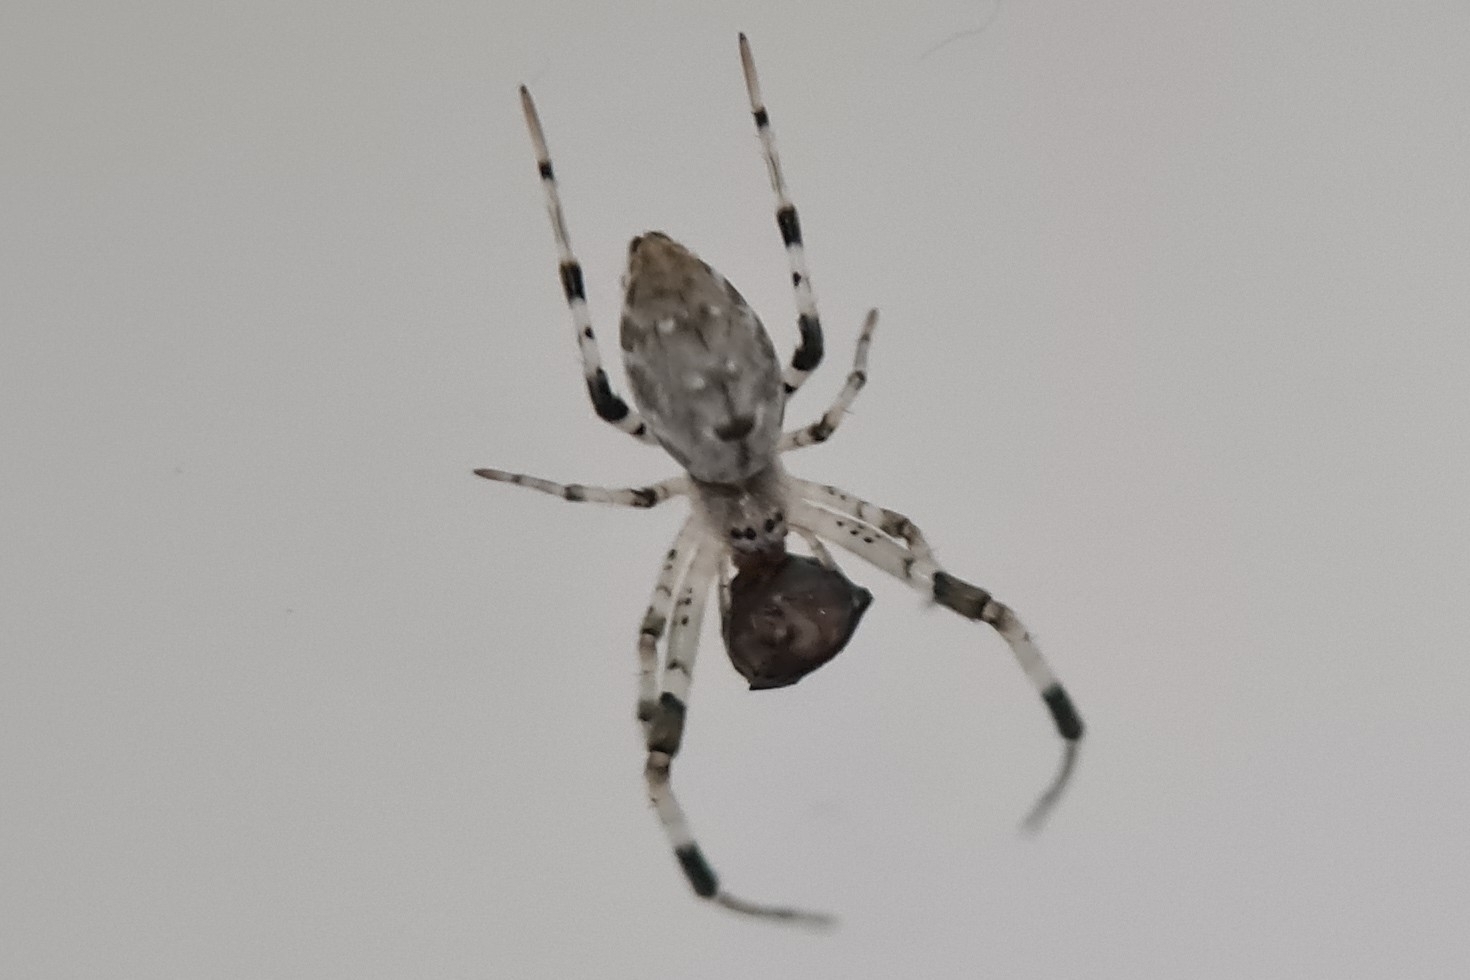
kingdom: Animalia
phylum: Arthropoda
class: Arachnida
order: Araneae
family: Uloboridae
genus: Zosis
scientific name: Zosis geniculata
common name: Hackled orb weavers
